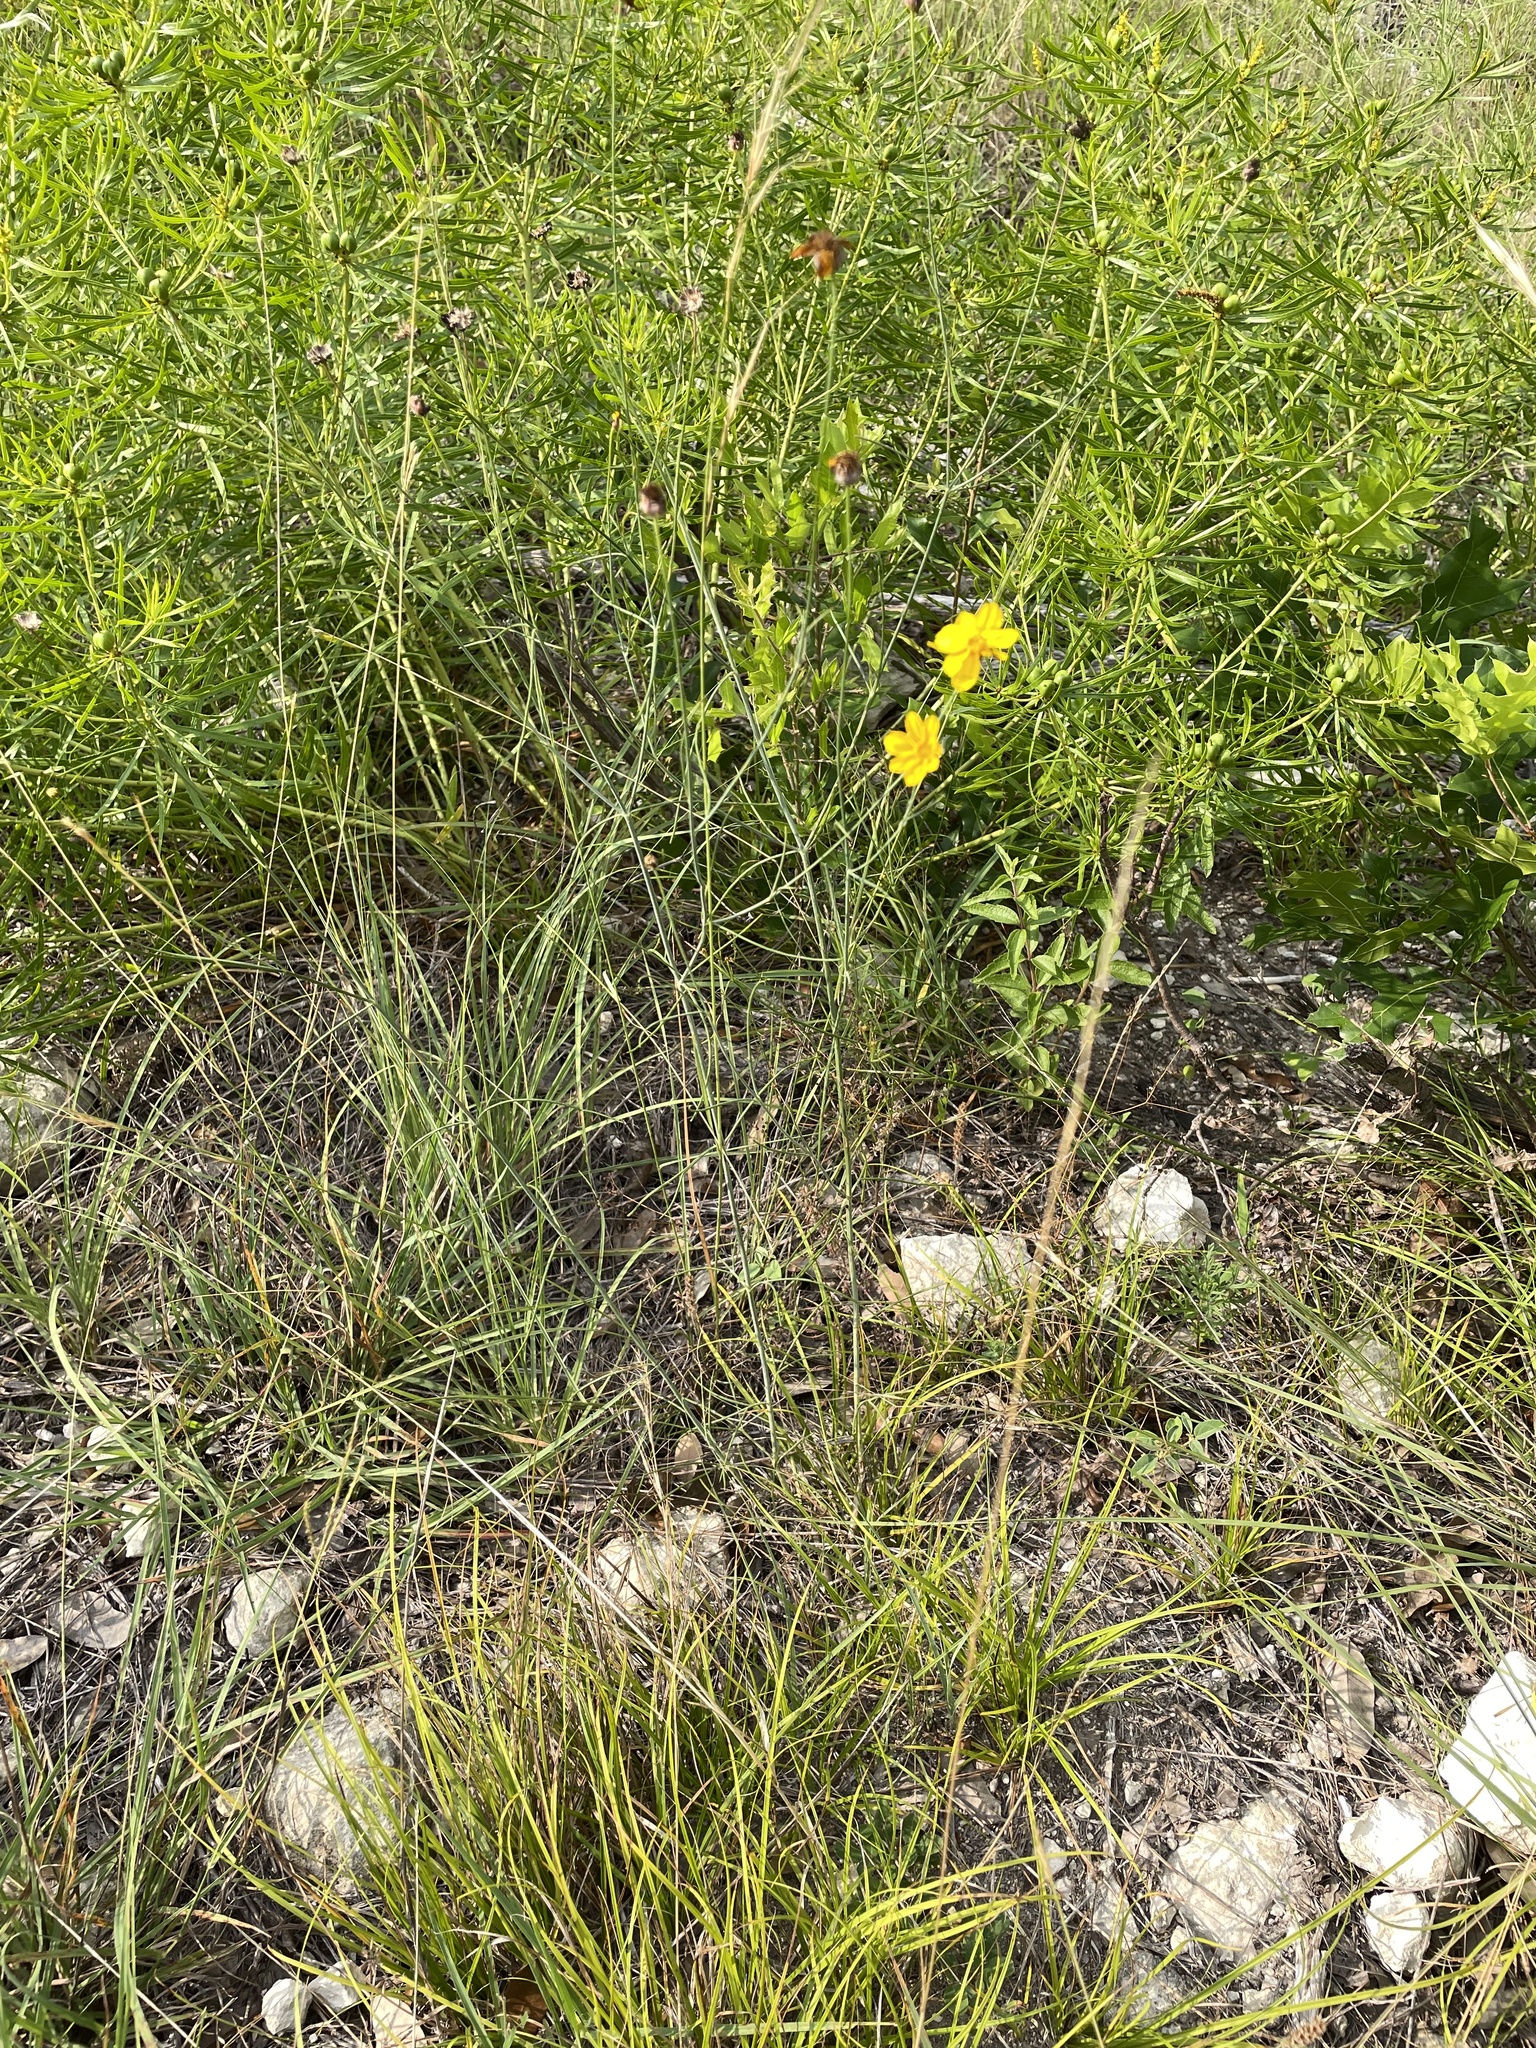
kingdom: Plantae
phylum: Tracheophyta
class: Magnoliopsida
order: Asterales
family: Asteraceae
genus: Thelesperma
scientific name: Thelesperma simplicifolium
